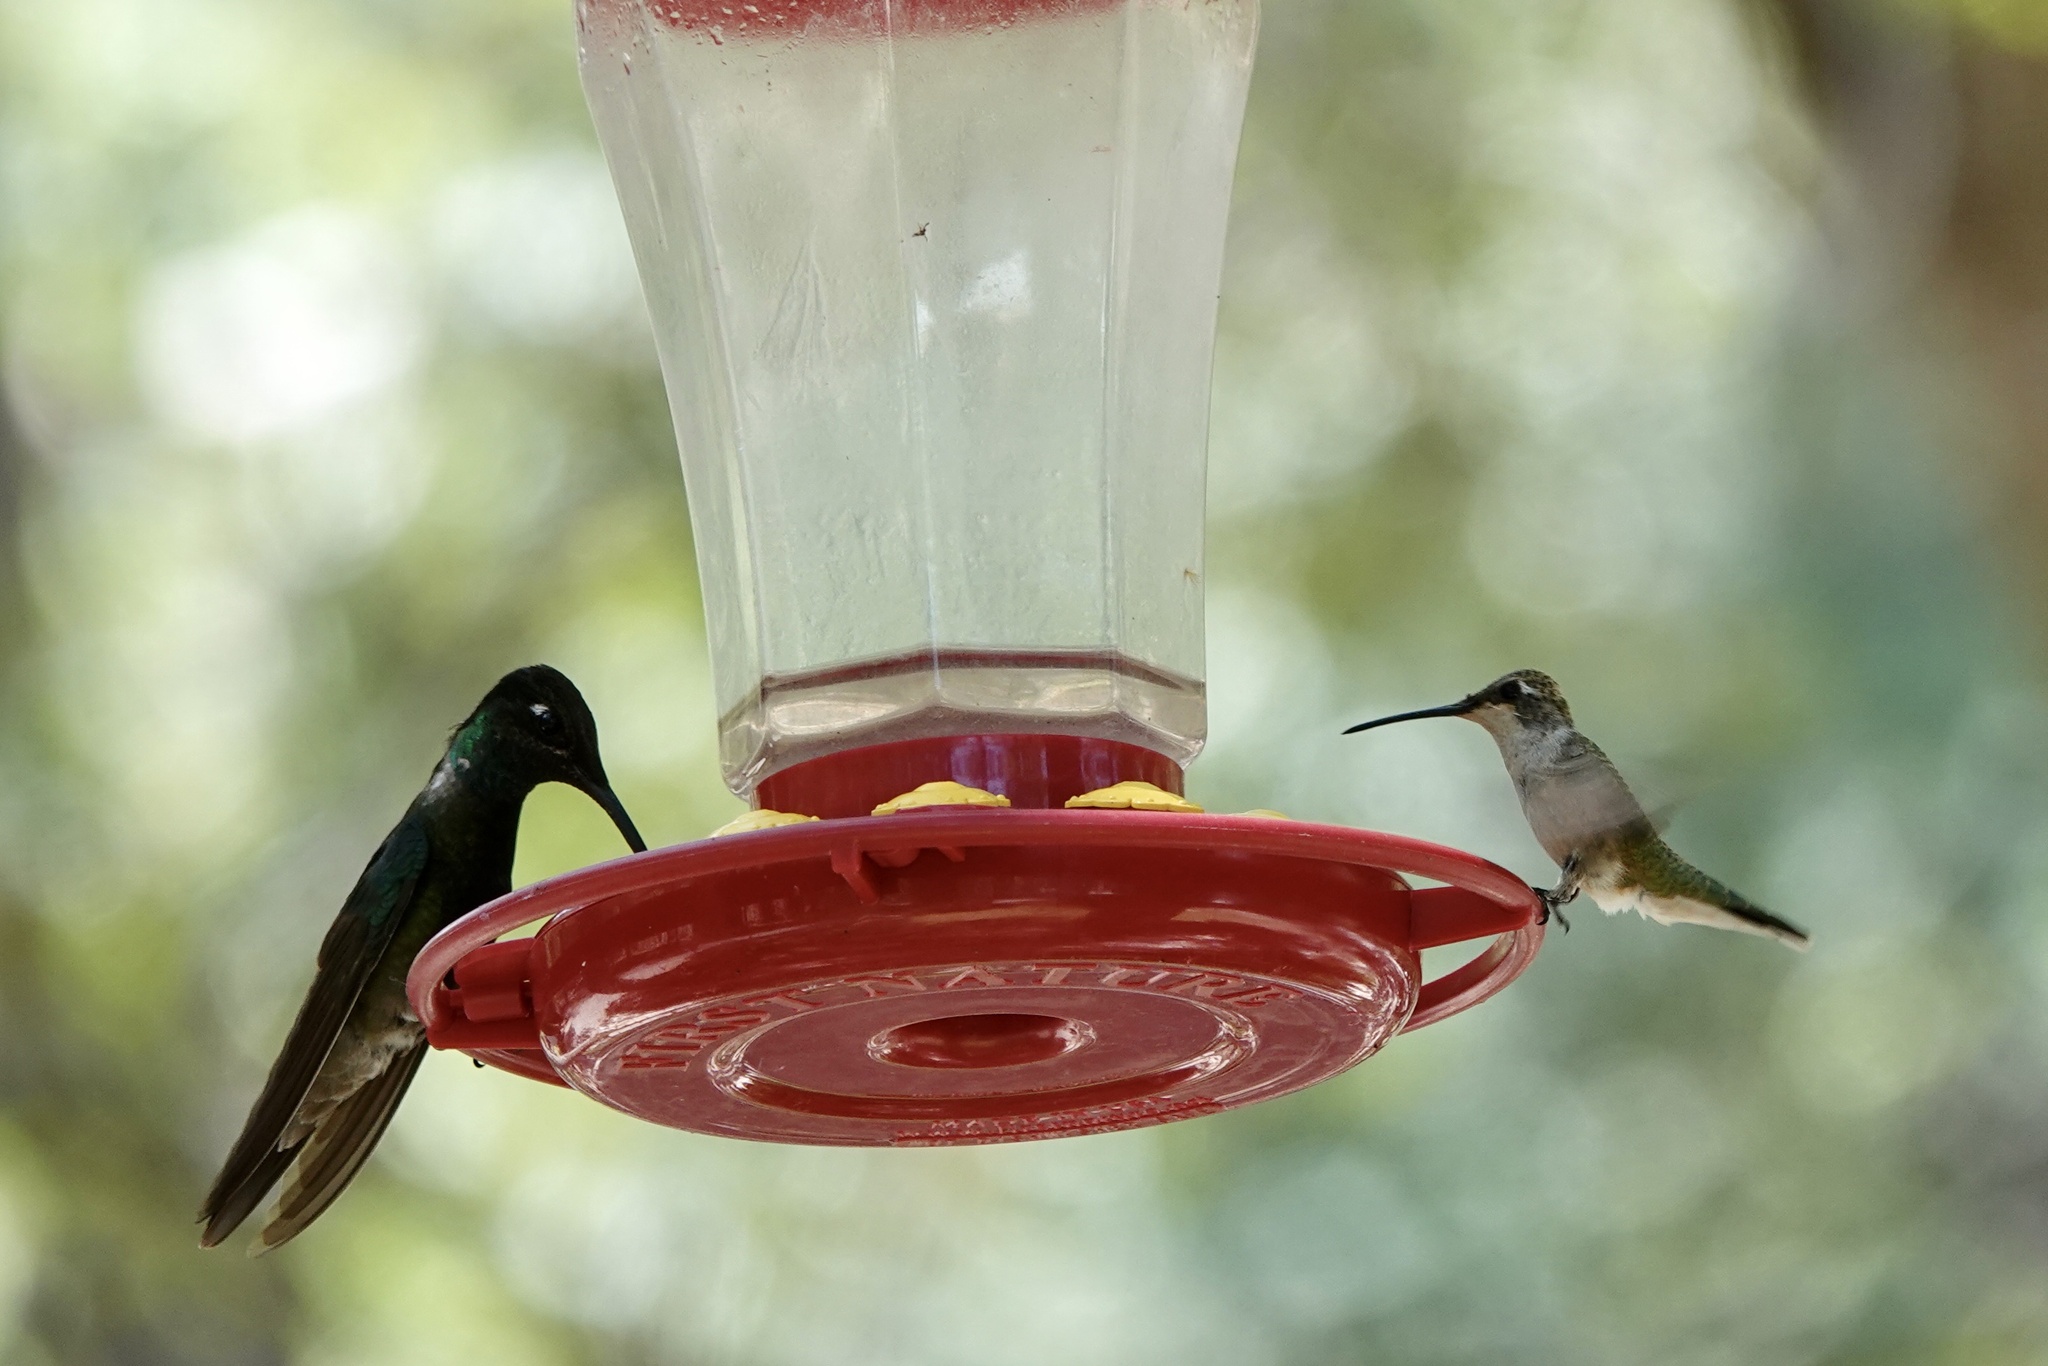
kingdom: Animalia
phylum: Chordata
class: Aves
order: Apodiformes
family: Trochilidae
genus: Eugenes
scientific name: Eugenes fulgens
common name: Magnificent hummingbird
